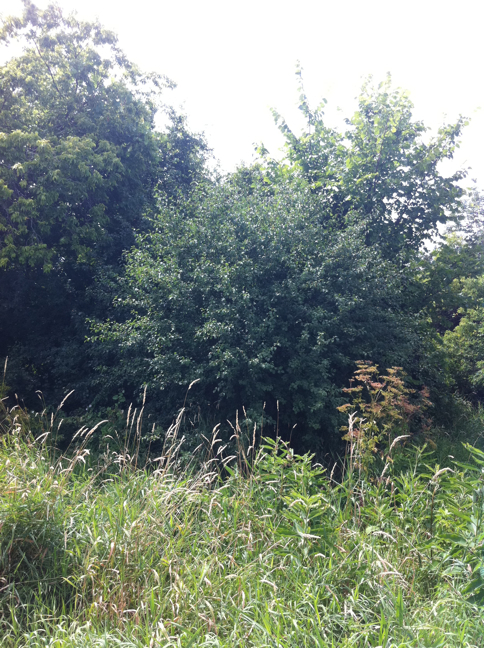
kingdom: Plantae
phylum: Tracheophyta
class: Magnoliopsida
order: Apiales
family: Apiaceae
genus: Pastinaca
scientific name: Pastinaca sativa
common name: Wild parsnip
